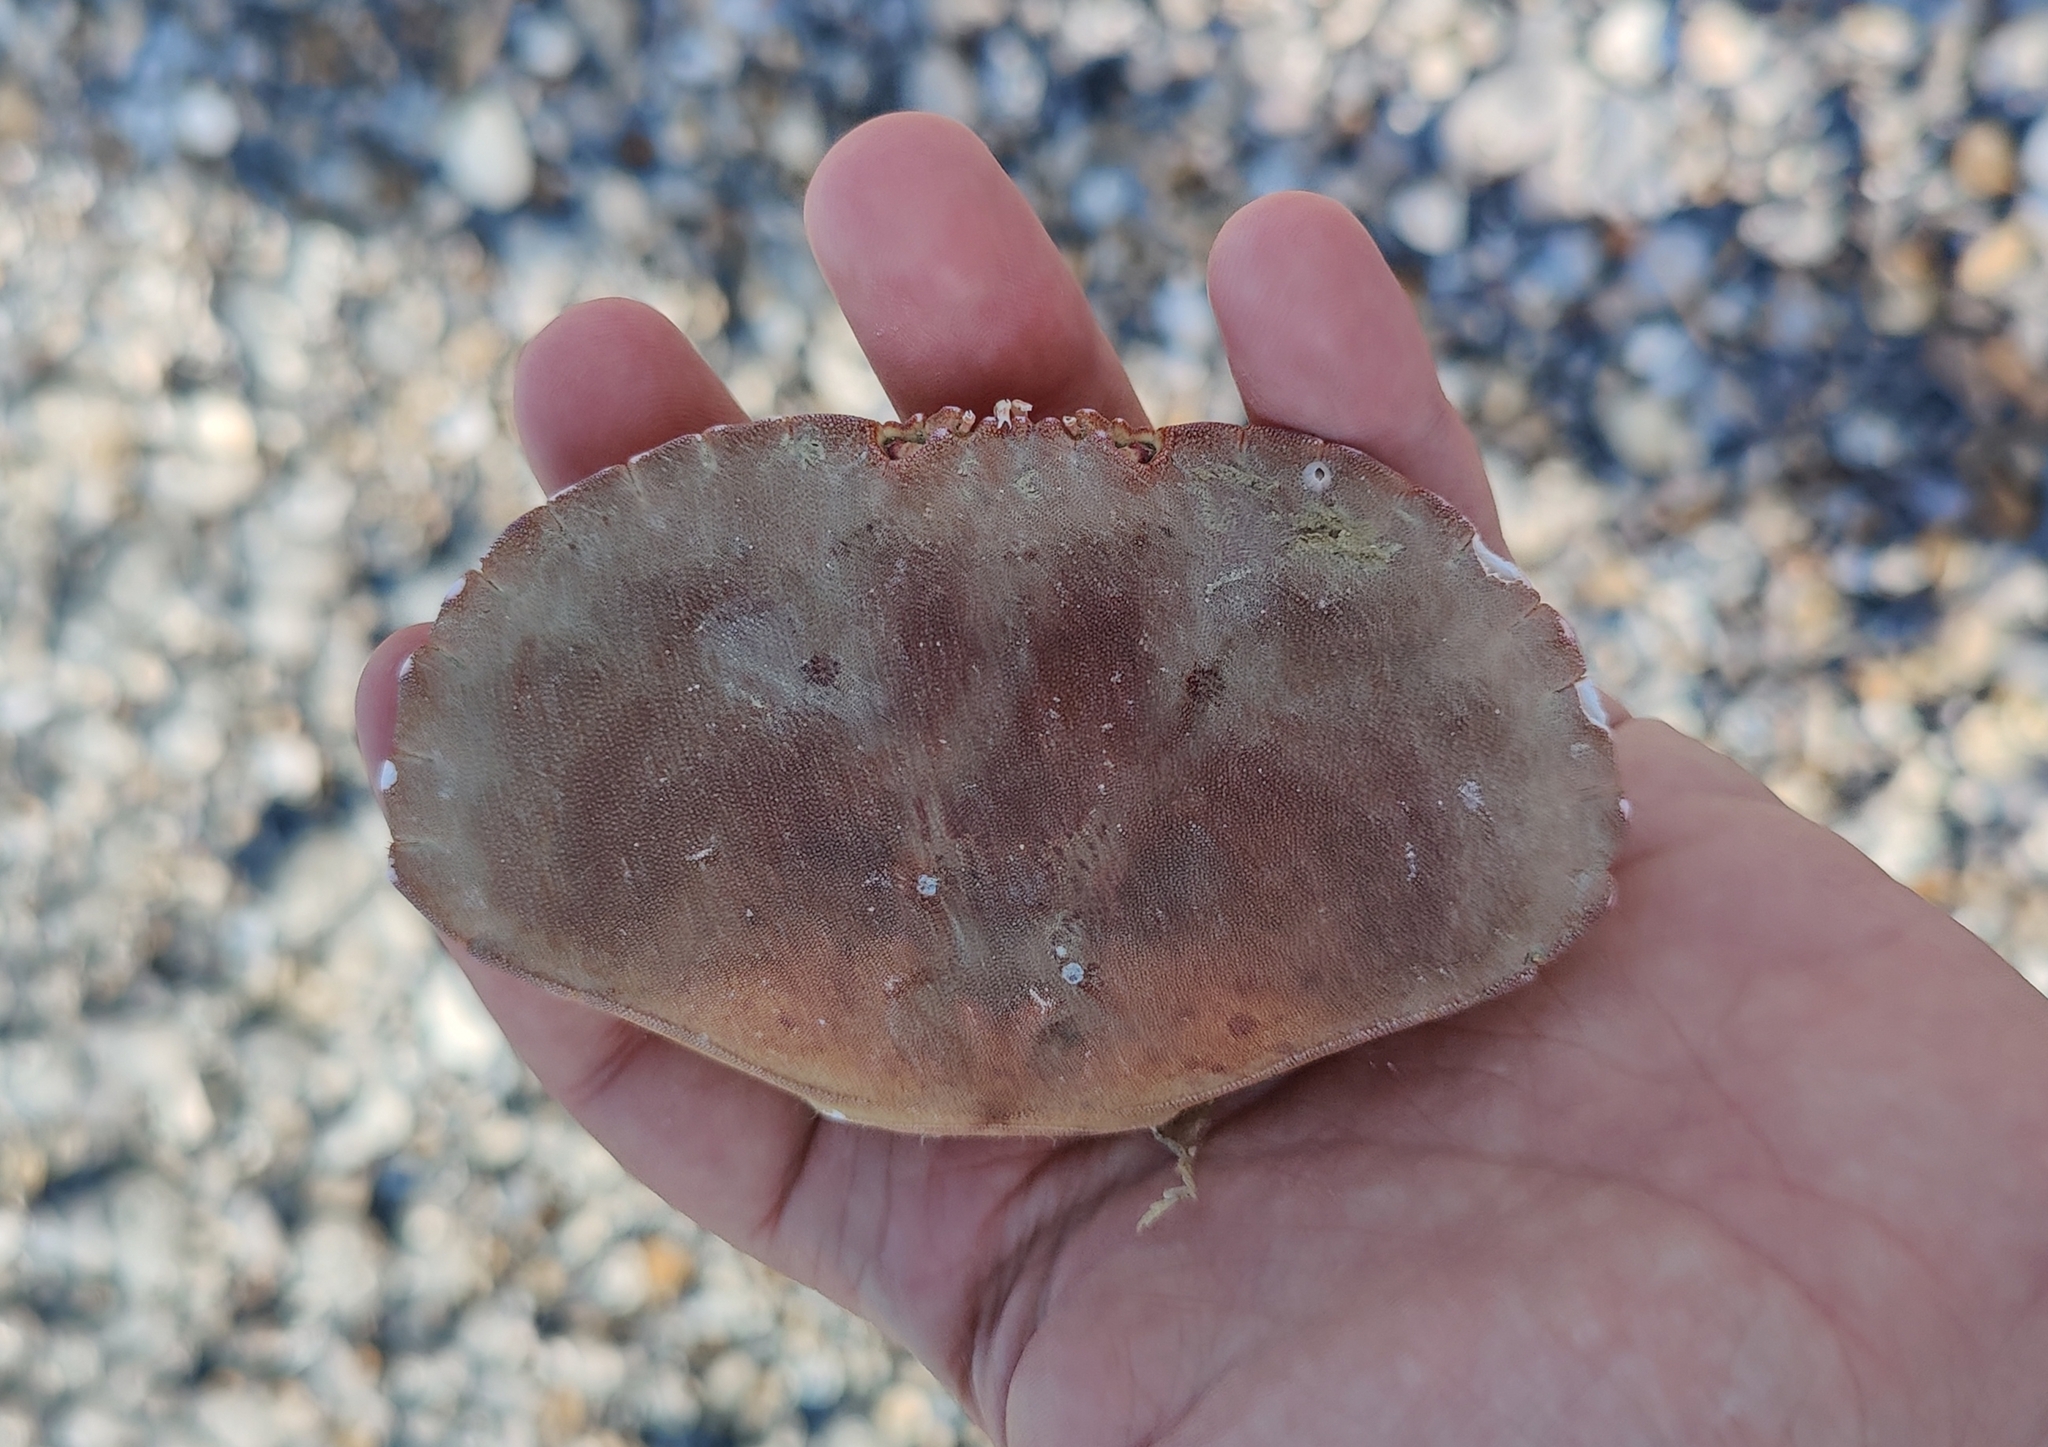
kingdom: Animalia
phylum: Arthropoda
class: Malacostraca
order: Decapoda
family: Cancridae
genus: Cancer
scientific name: Cancer pagurus
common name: Edible crab
